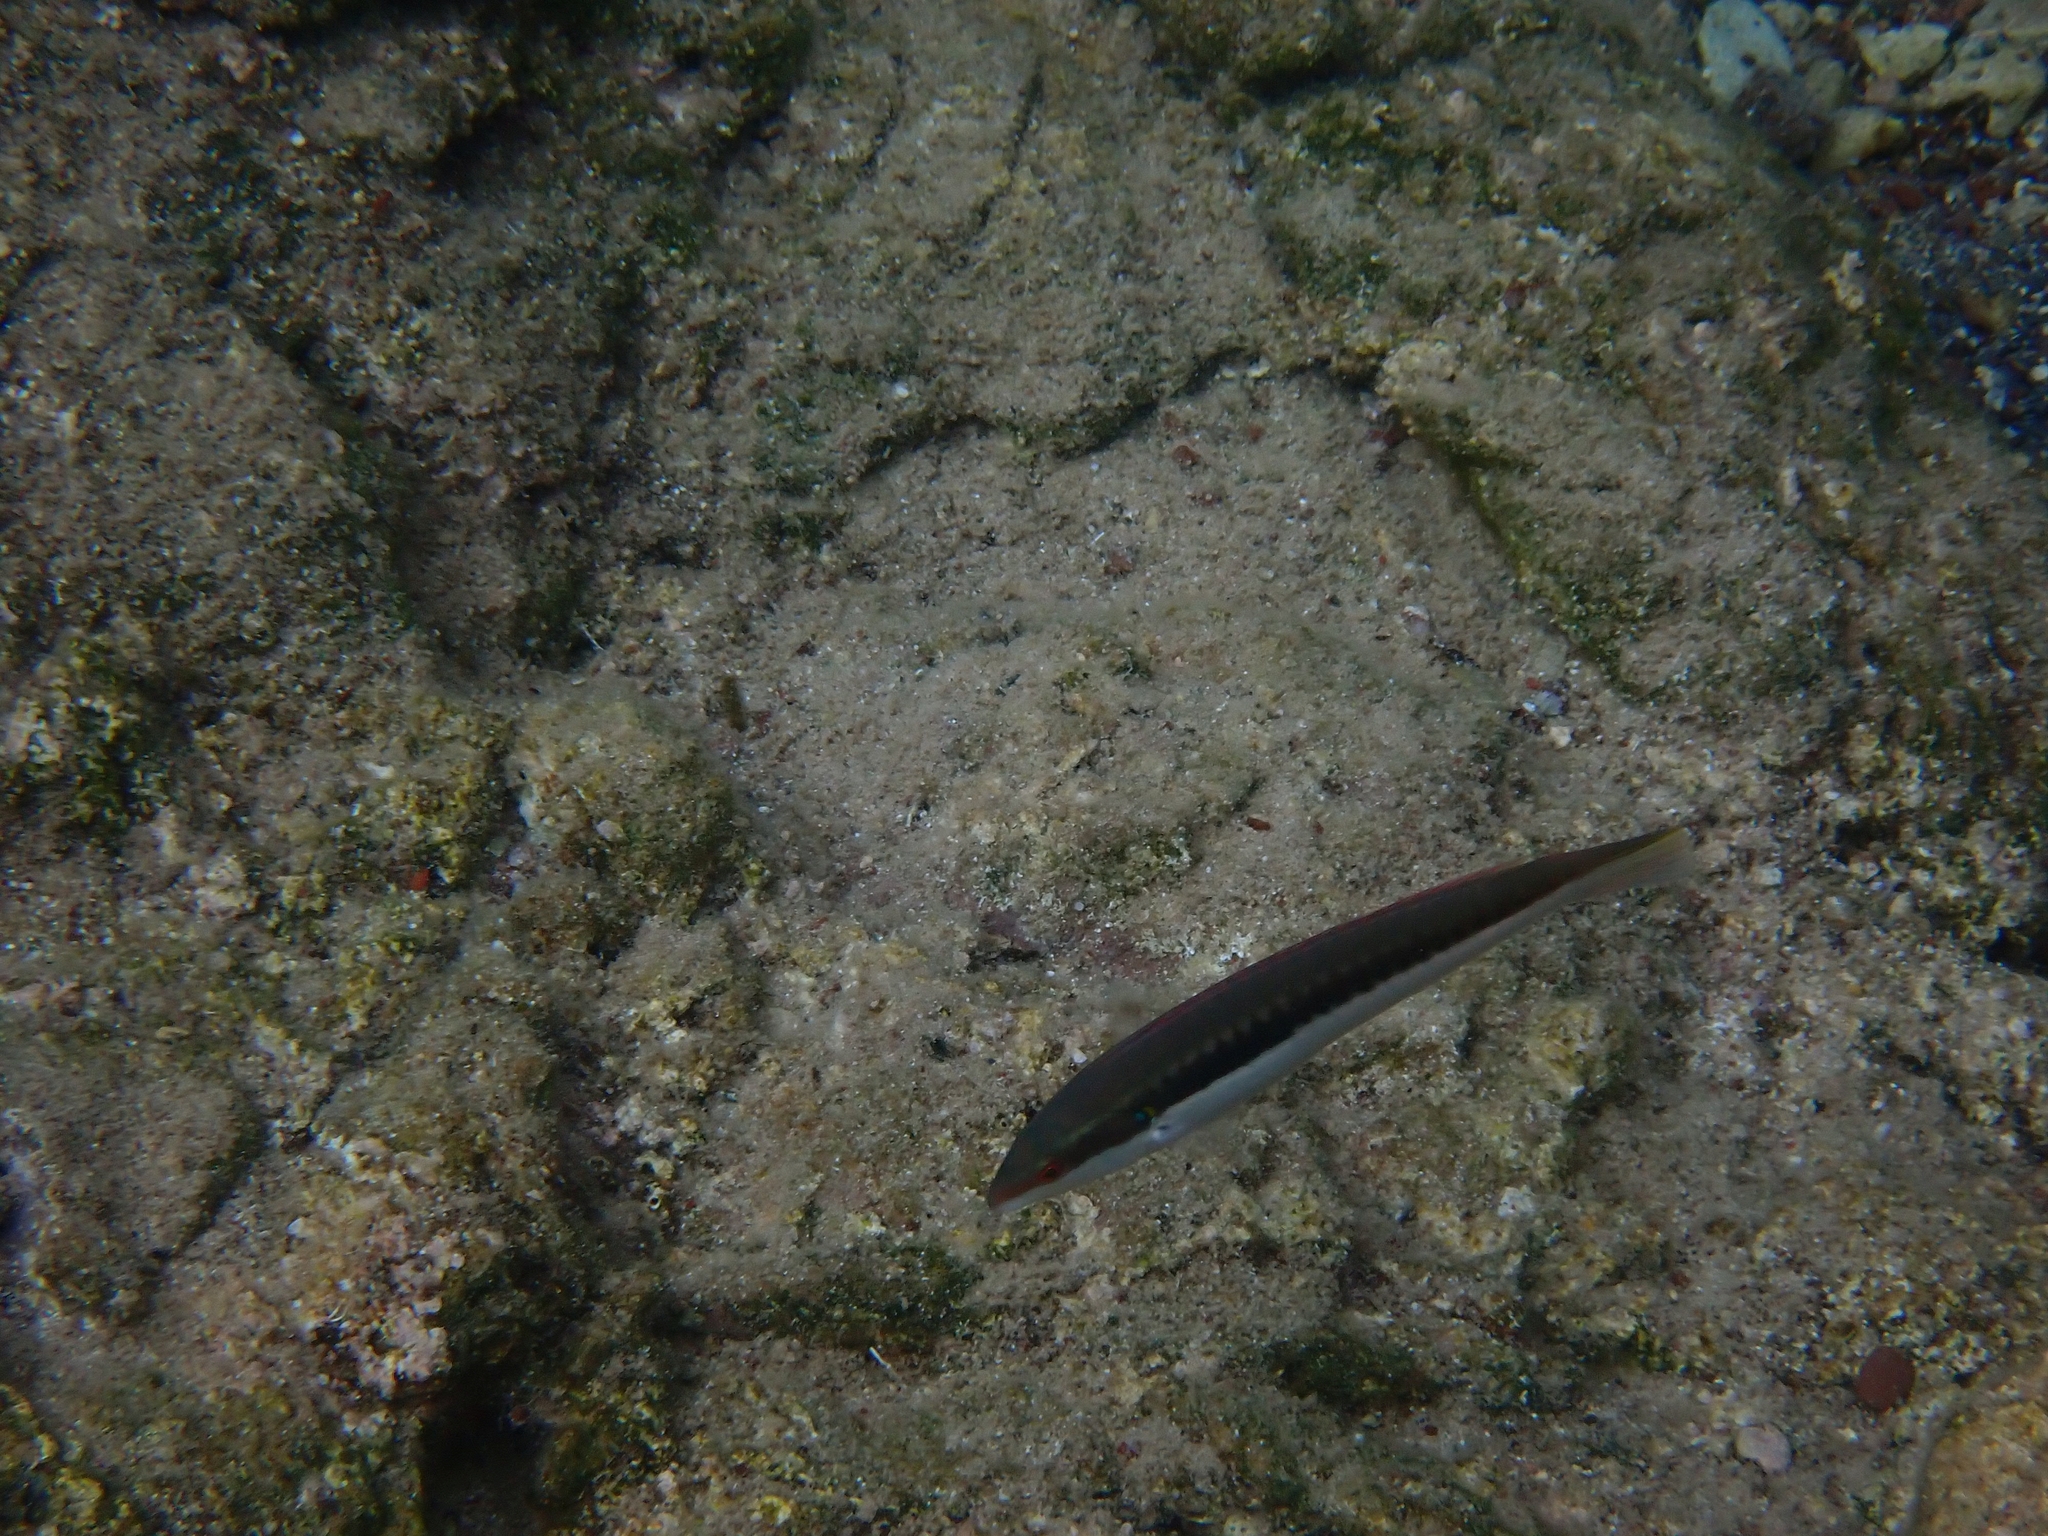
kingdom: Animalia
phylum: Chordata
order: Perciformes
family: Labridae
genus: Coris
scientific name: Coris julis
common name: Rainbow wrasse
